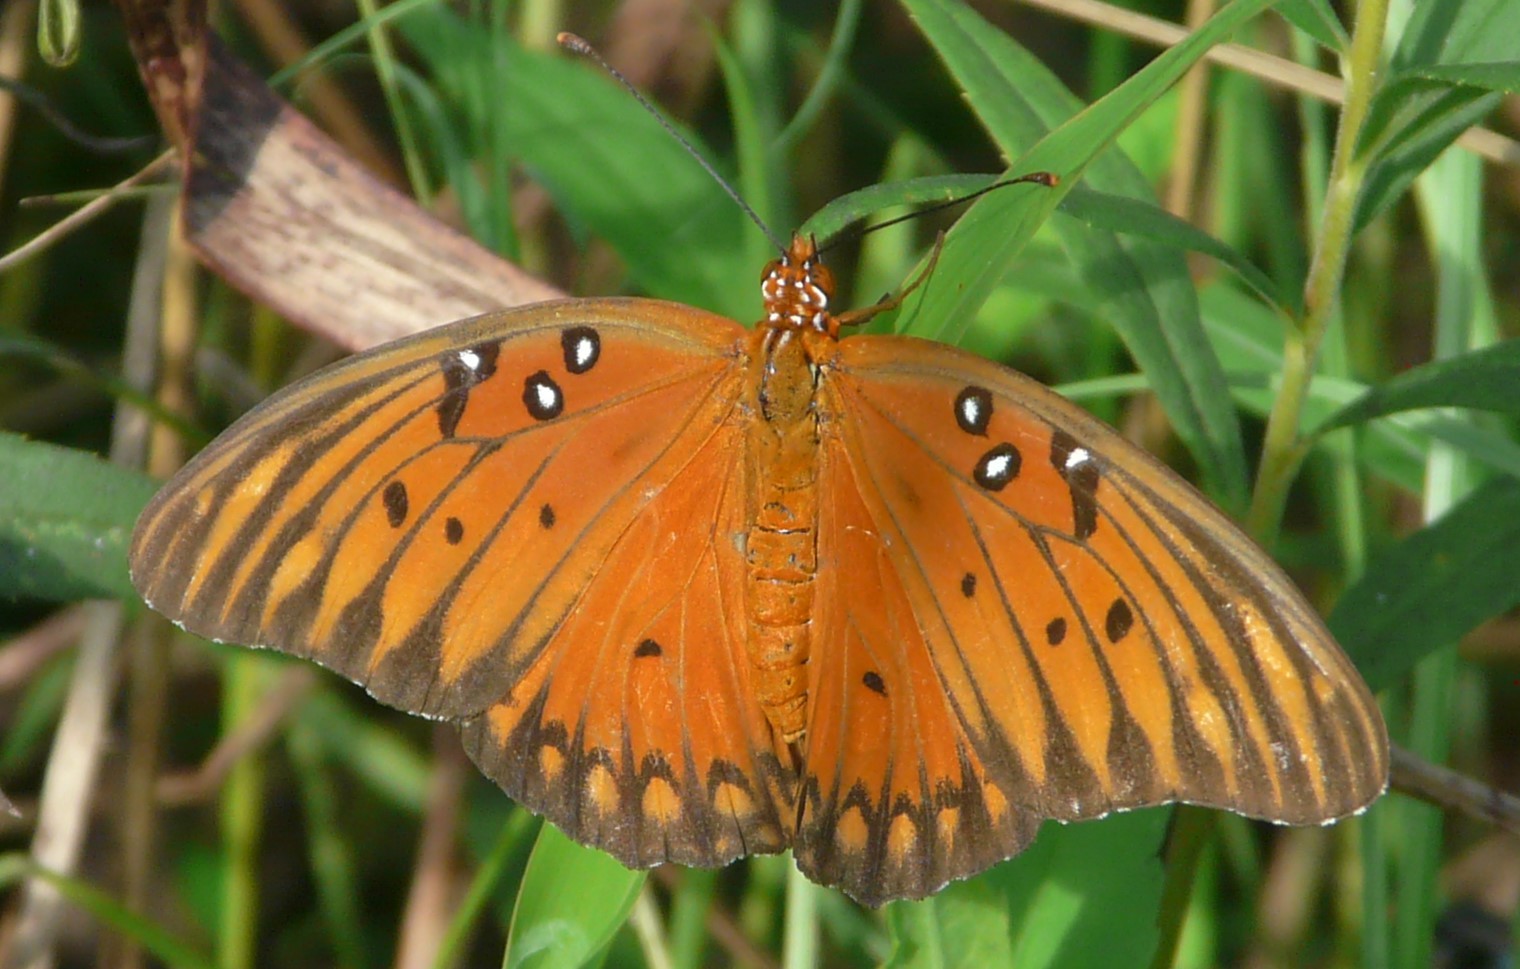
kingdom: Animalia
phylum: Arthropoda
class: Insecta
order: Lepidoptera
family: Nymphalidae
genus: Dione
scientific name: Dione vanillae
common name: Gulf fritillary
